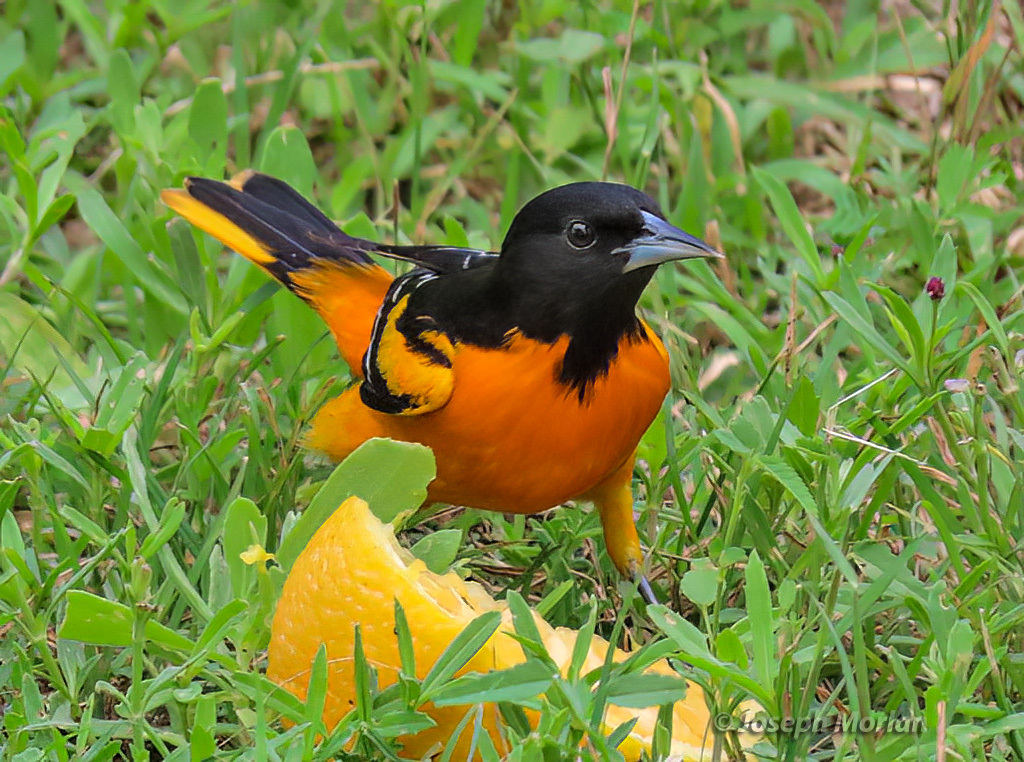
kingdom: Animalia
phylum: Chordata
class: Aves
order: Passeriformes
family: Icteridae
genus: Icterus
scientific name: Icterus galbula
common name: Baltimore oriole
